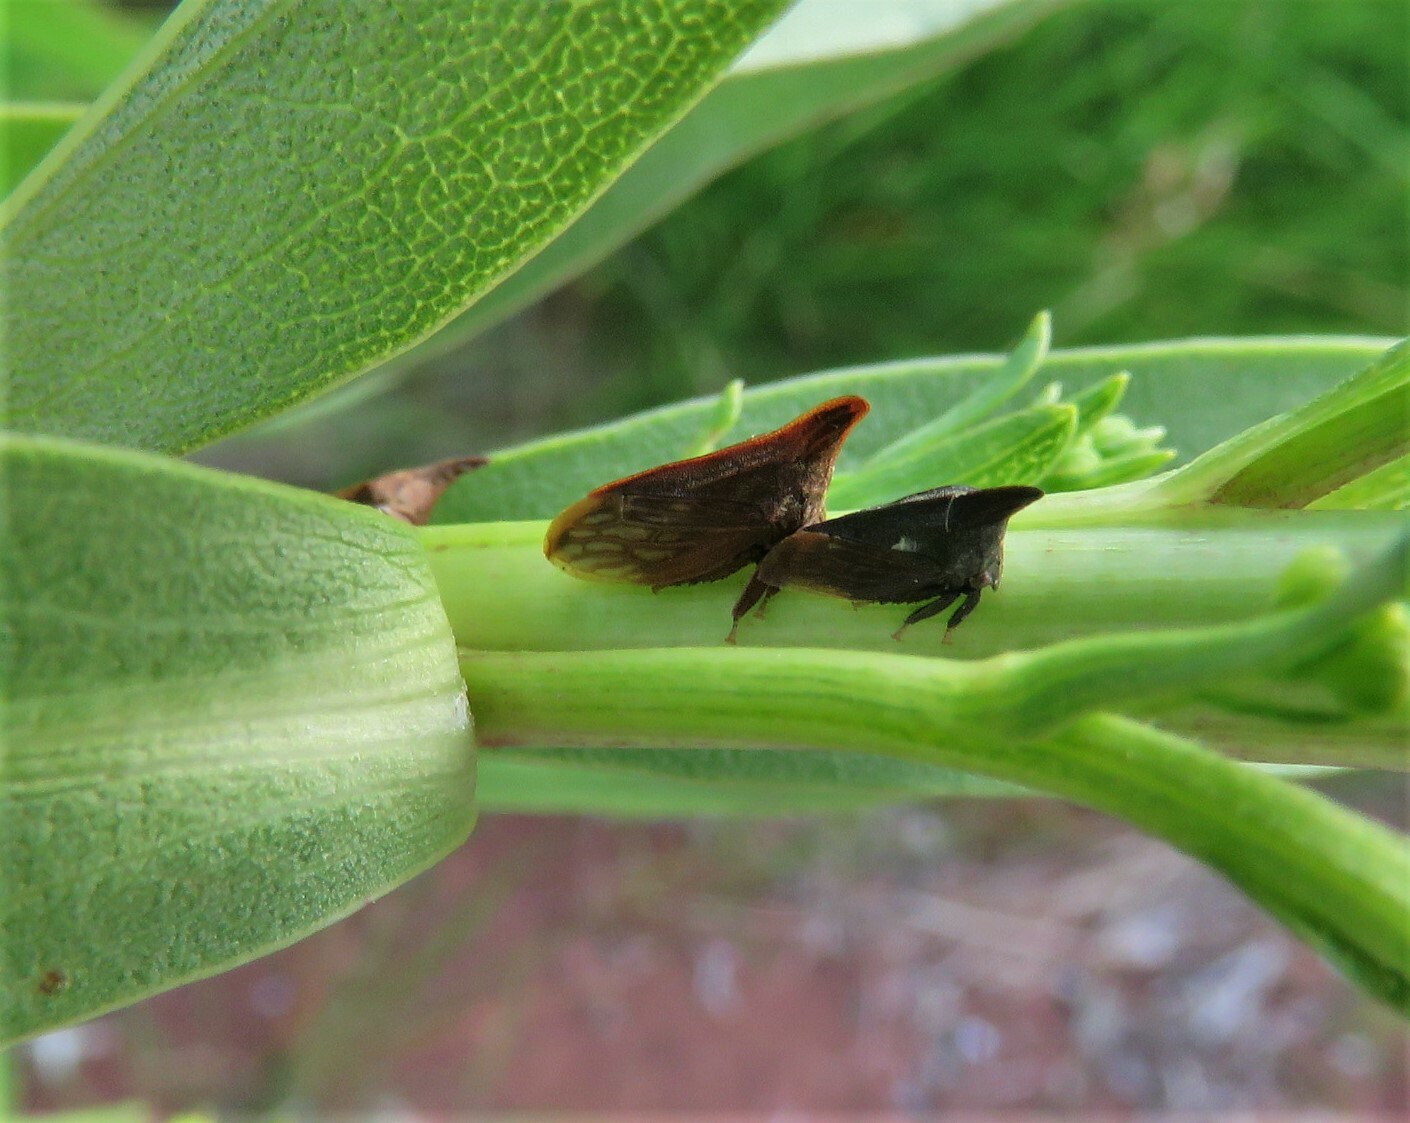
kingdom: Animalia
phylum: Arthropoda
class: Insecta
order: Hemiptera
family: Membracidae
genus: Enchenopa
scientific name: Enchenopa latipes
